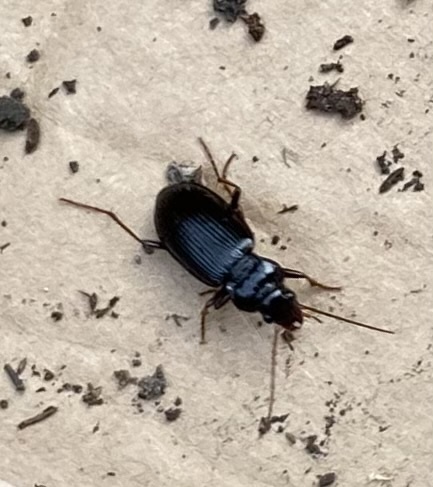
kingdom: Animalia
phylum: Arthropoda
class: Insecta
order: Coleoptera
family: Carabidae
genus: Nebria
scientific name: Nebria brevicollis
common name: Short-necked gazelle beetle
